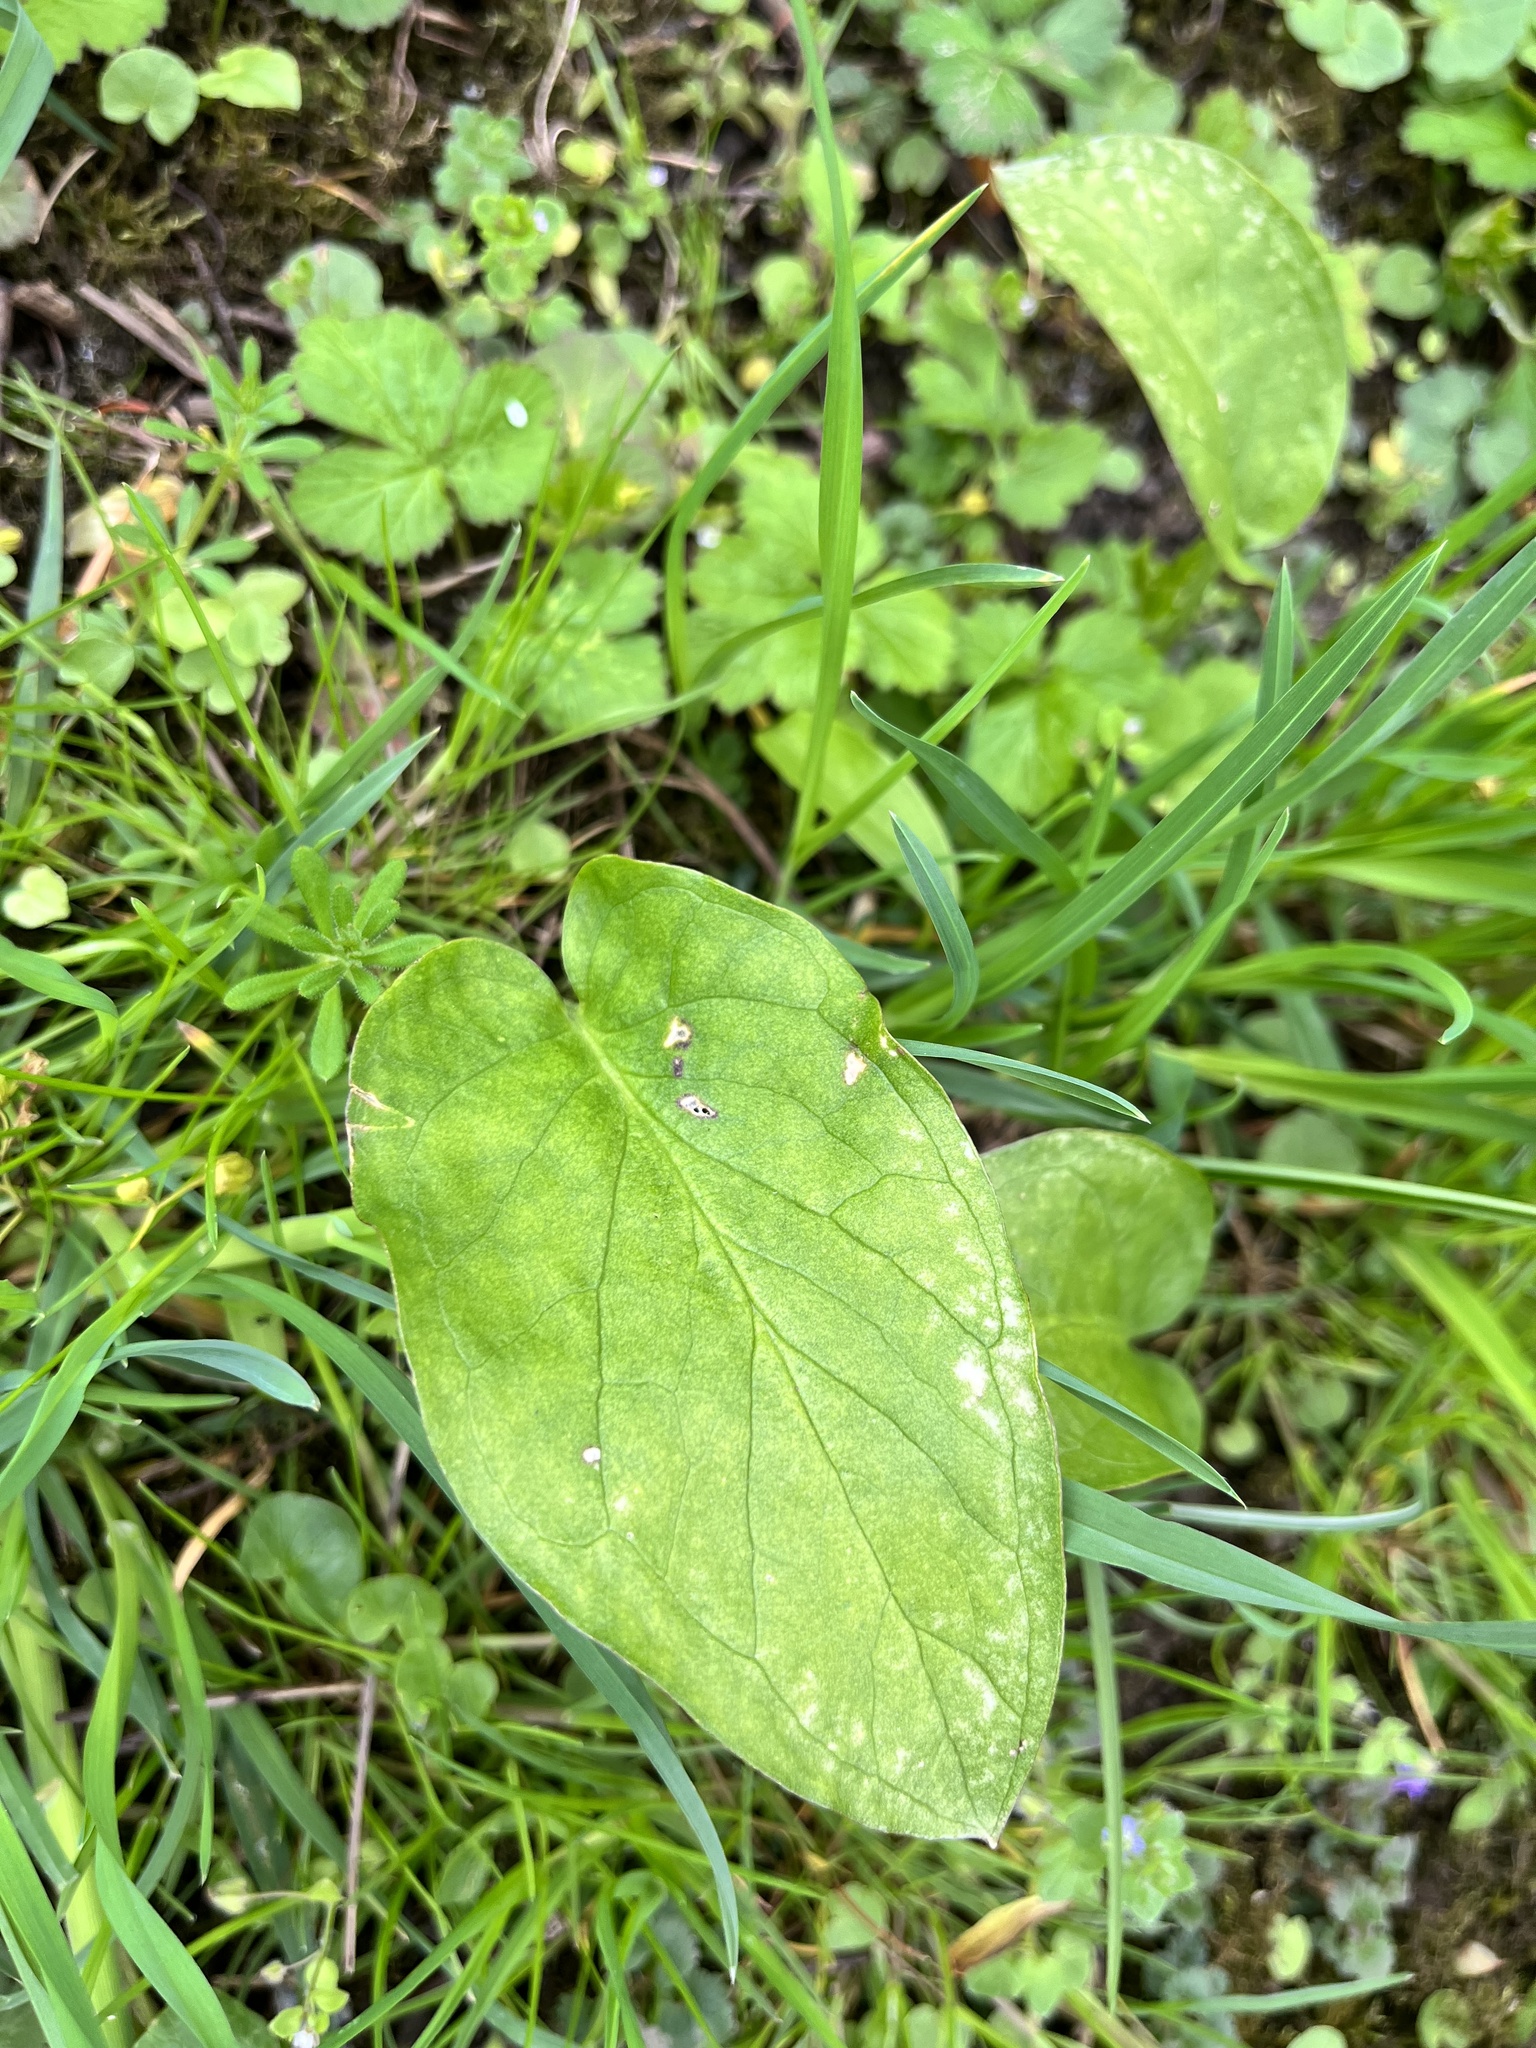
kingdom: Plantae
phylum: Tracheophyta
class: Liliopsida
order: Alismatales
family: Araceae
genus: Arum
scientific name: Arum maculatum
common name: Lords-and-ladies
